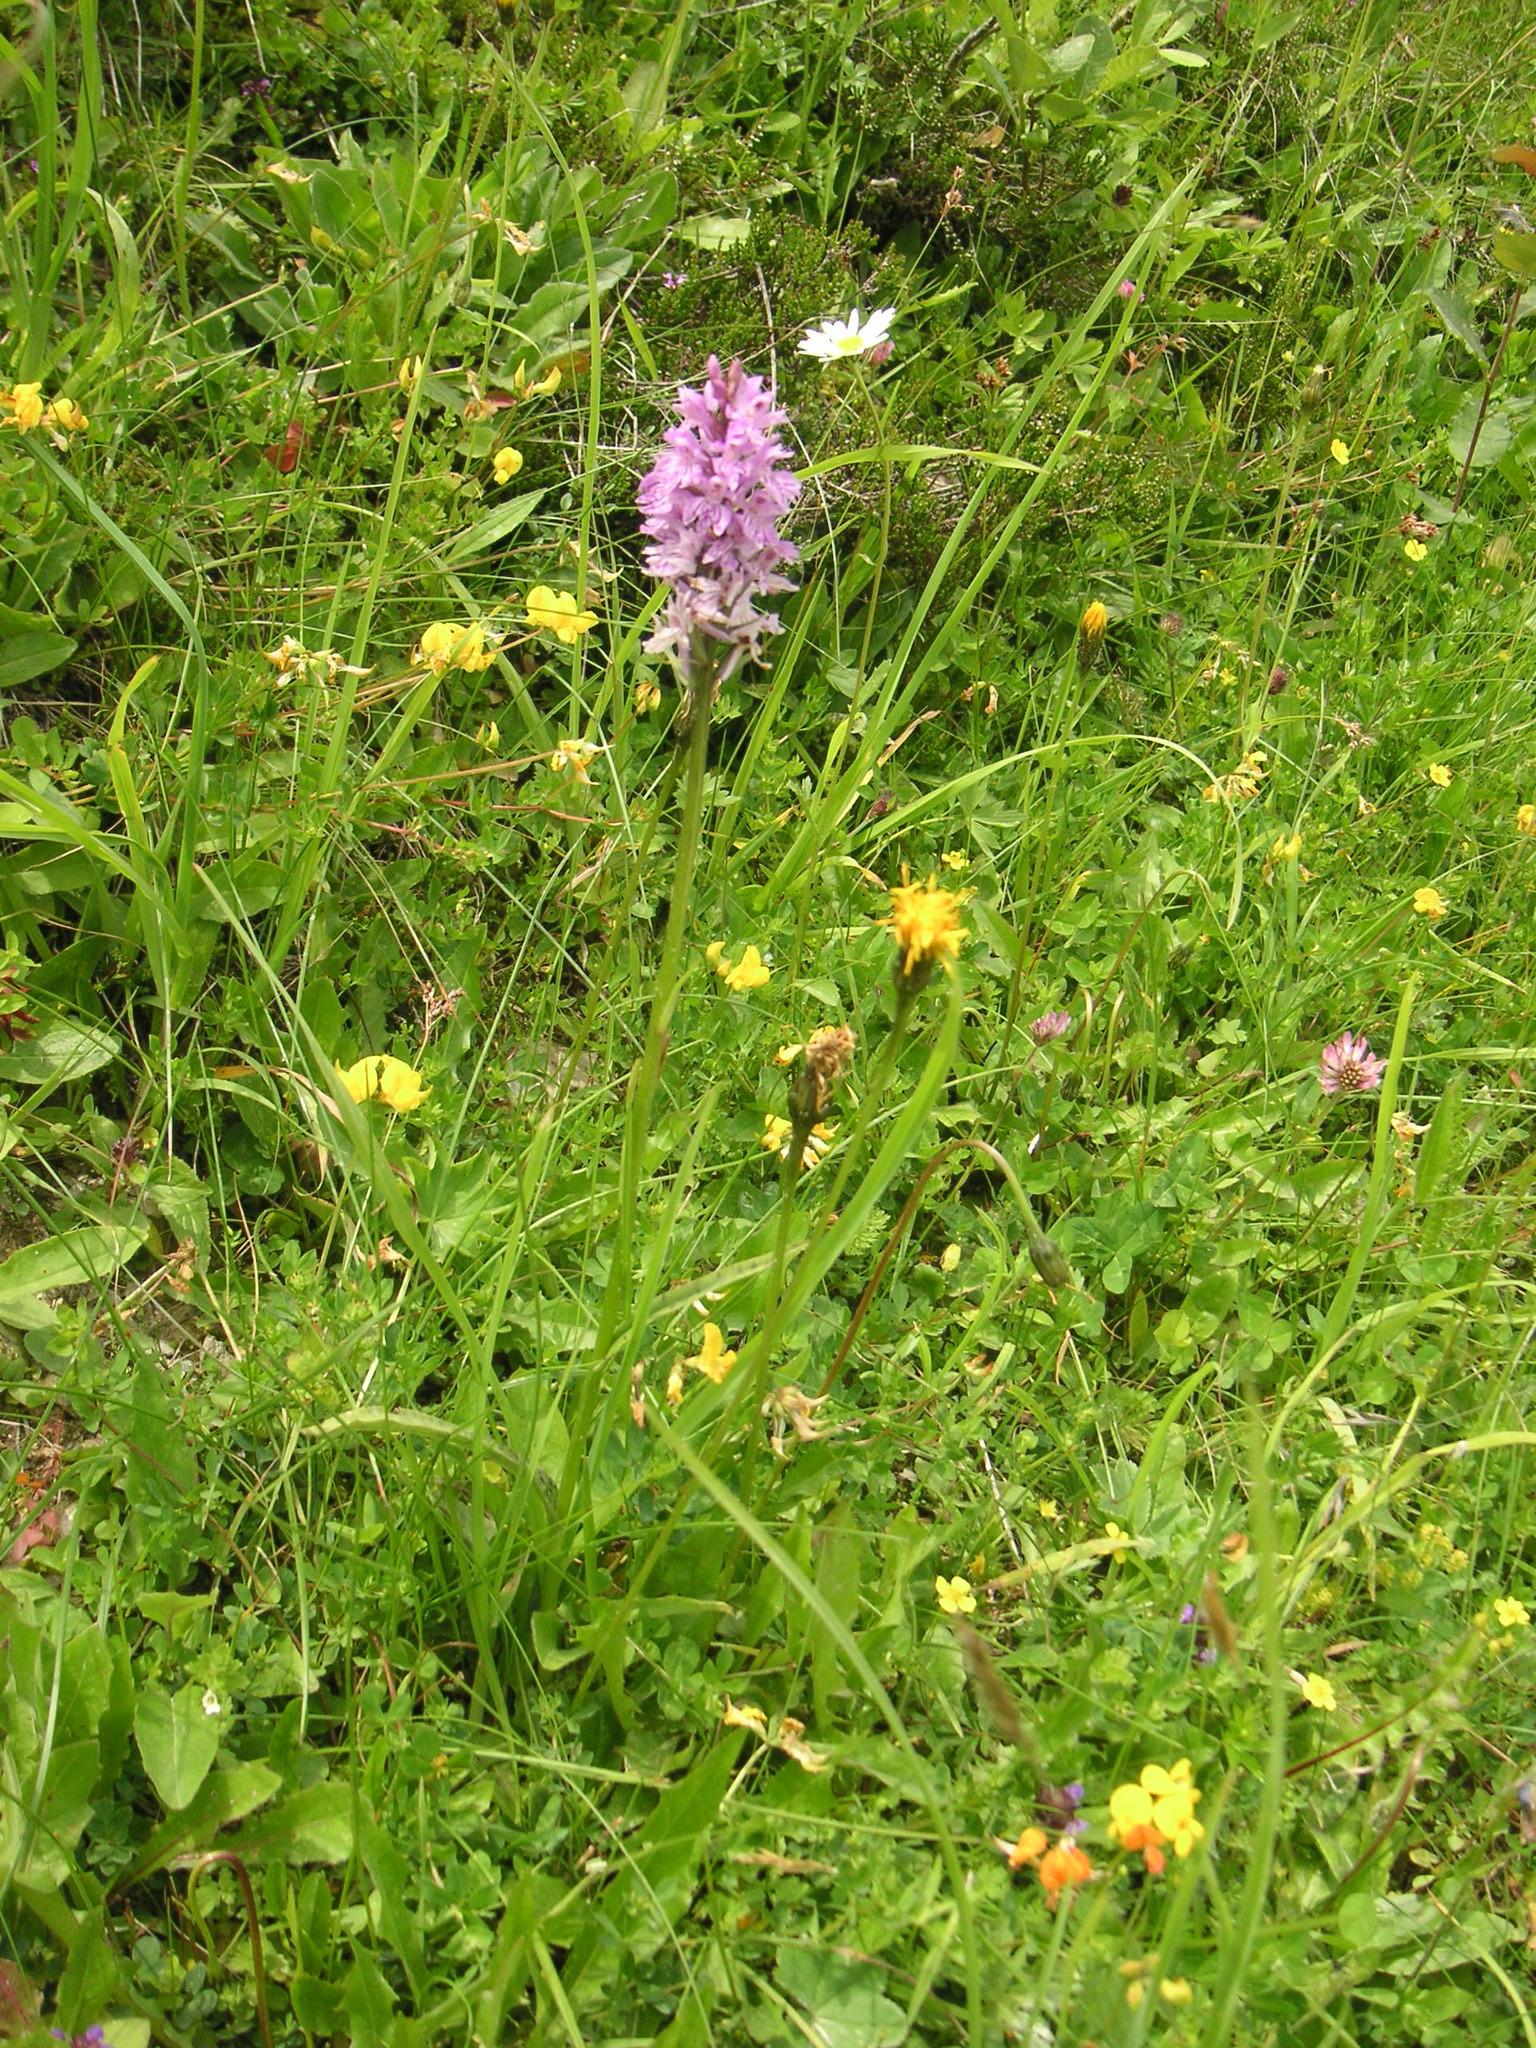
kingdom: Plantae
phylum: Tracheophyta
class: Liliopsida
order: Asparagales
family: Orchidaceae
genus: Dactylorhiza
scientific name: Dactylorhiza maculata
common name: Heath spotted-orchid
